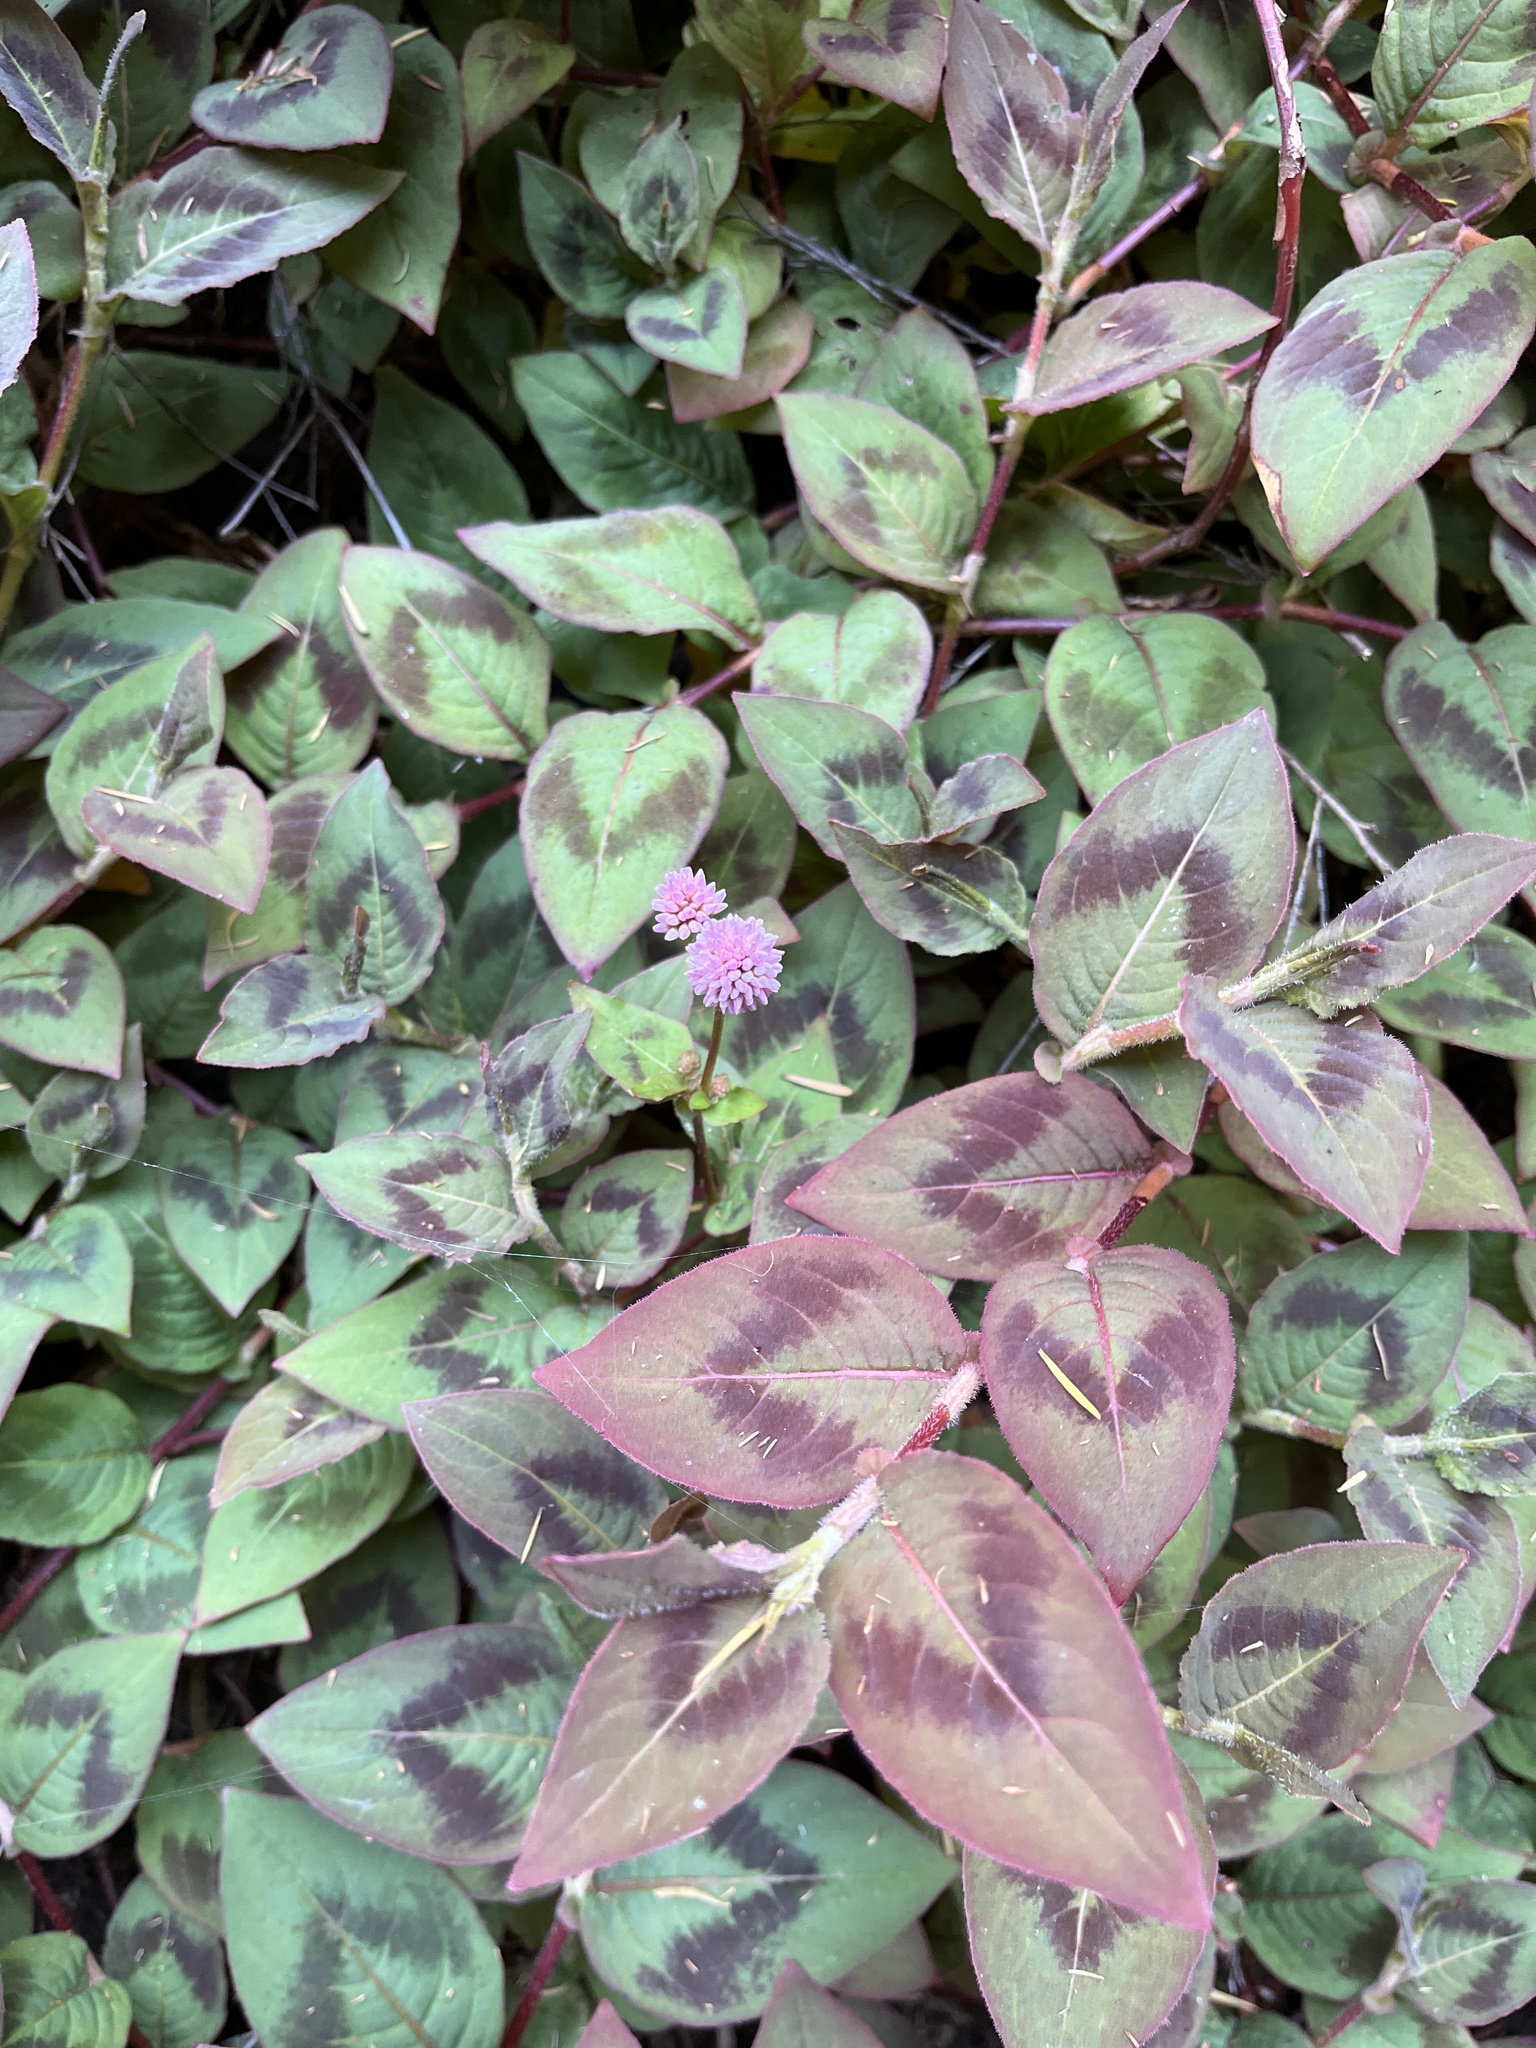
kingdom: Plantae
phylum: Tracheophyta
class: Magnoliopsida
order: Caryophyllales
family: Polygonaceae
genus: Persicaria
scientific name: Persicaria capitata
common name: Pinkhead smartweed
